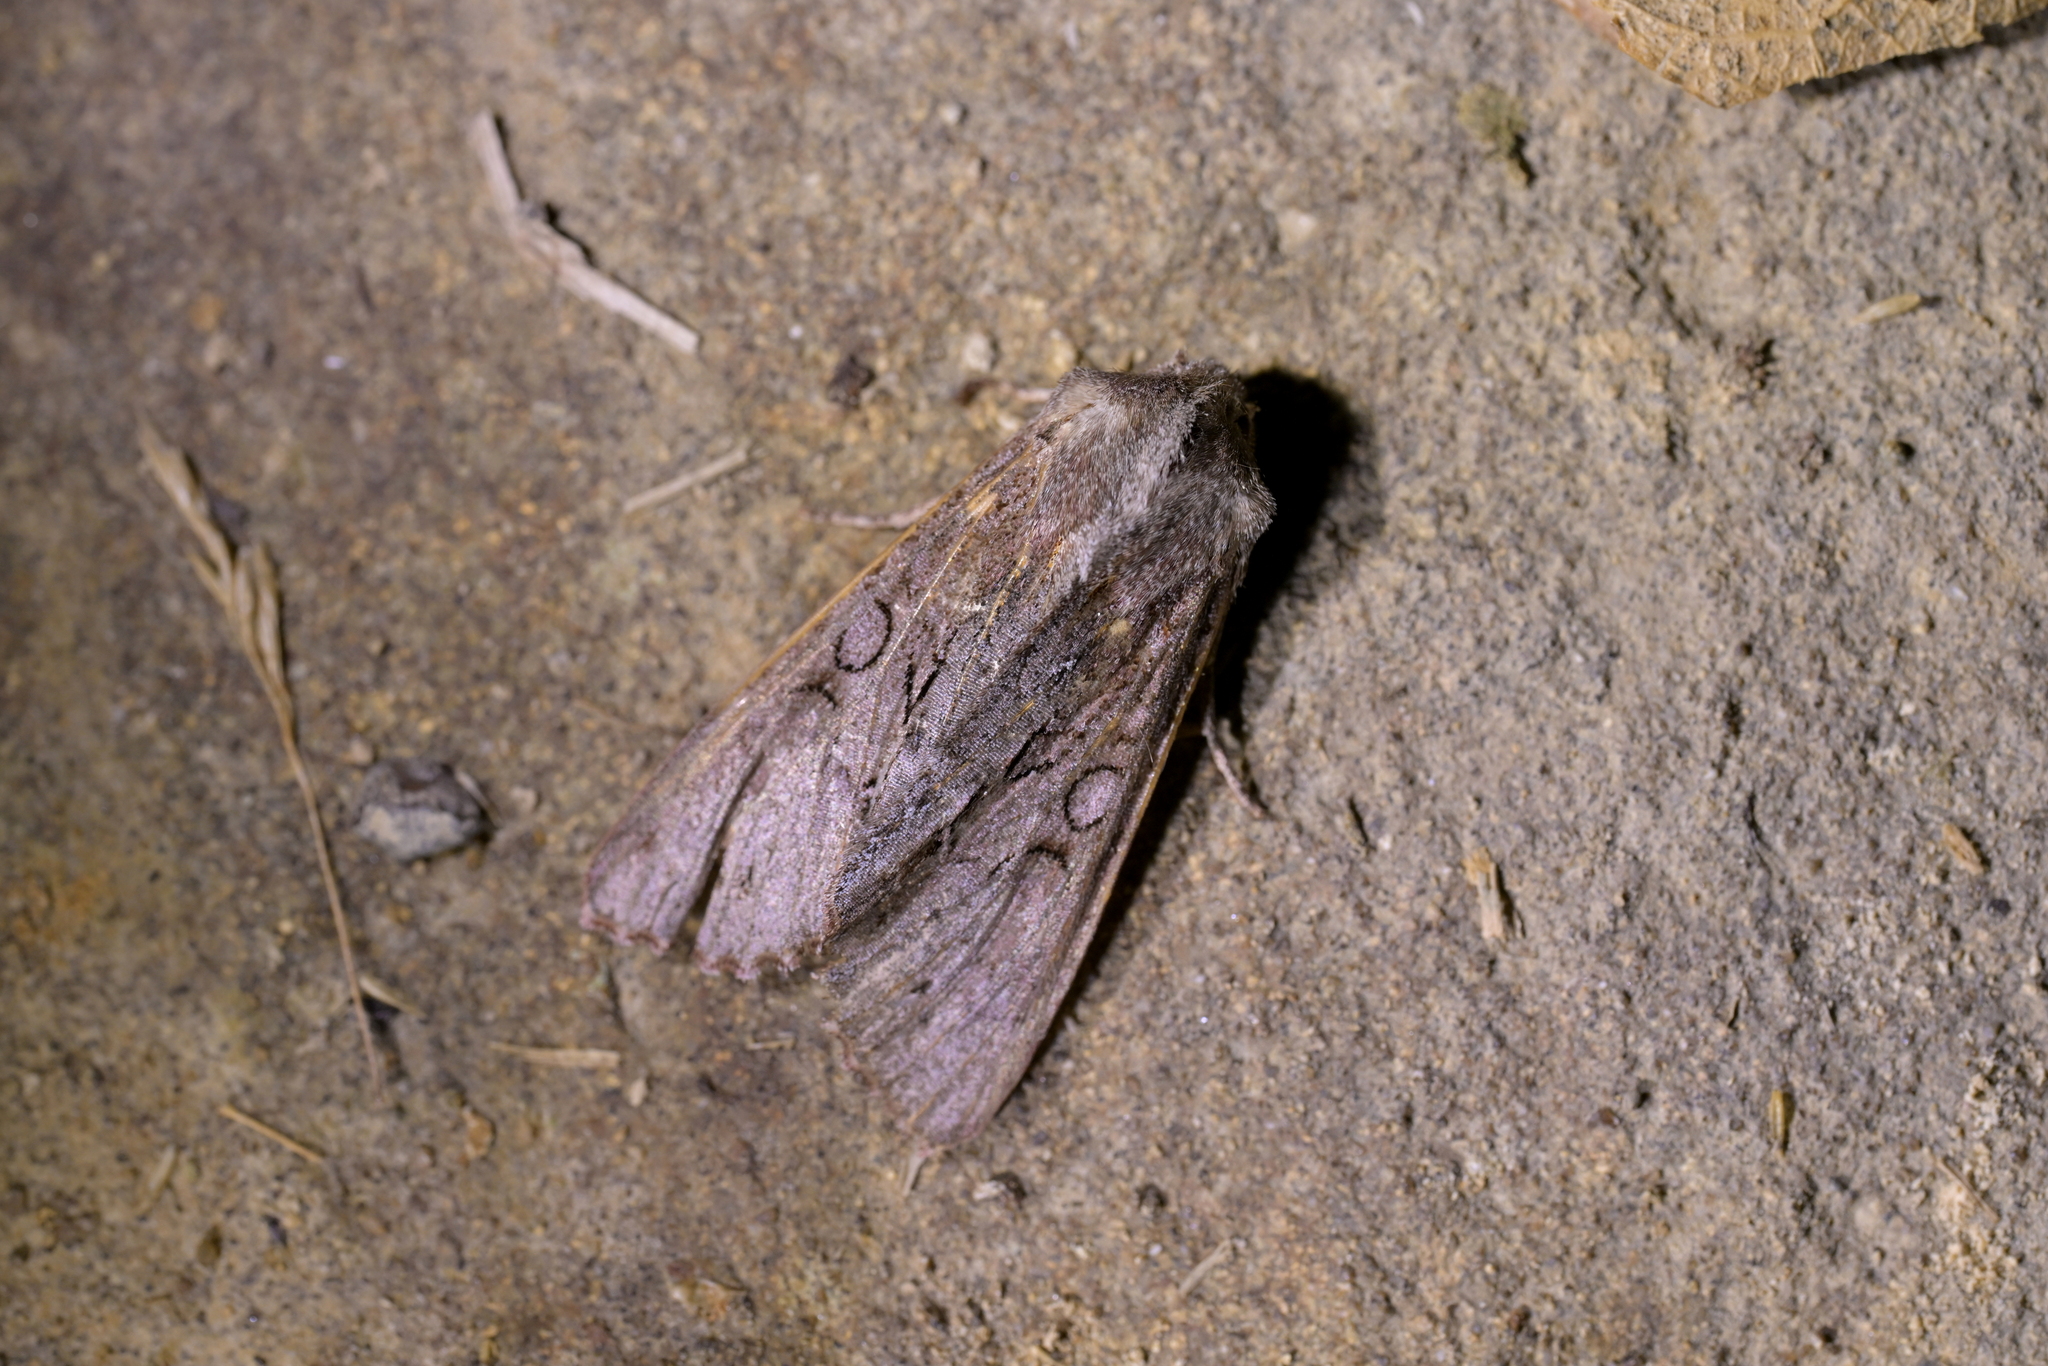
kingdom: Animalia
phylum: Arthropoda
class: Insecta
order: Lepidoptera
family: Noctuidae
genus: Ichneutica
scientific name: Ichneutica
